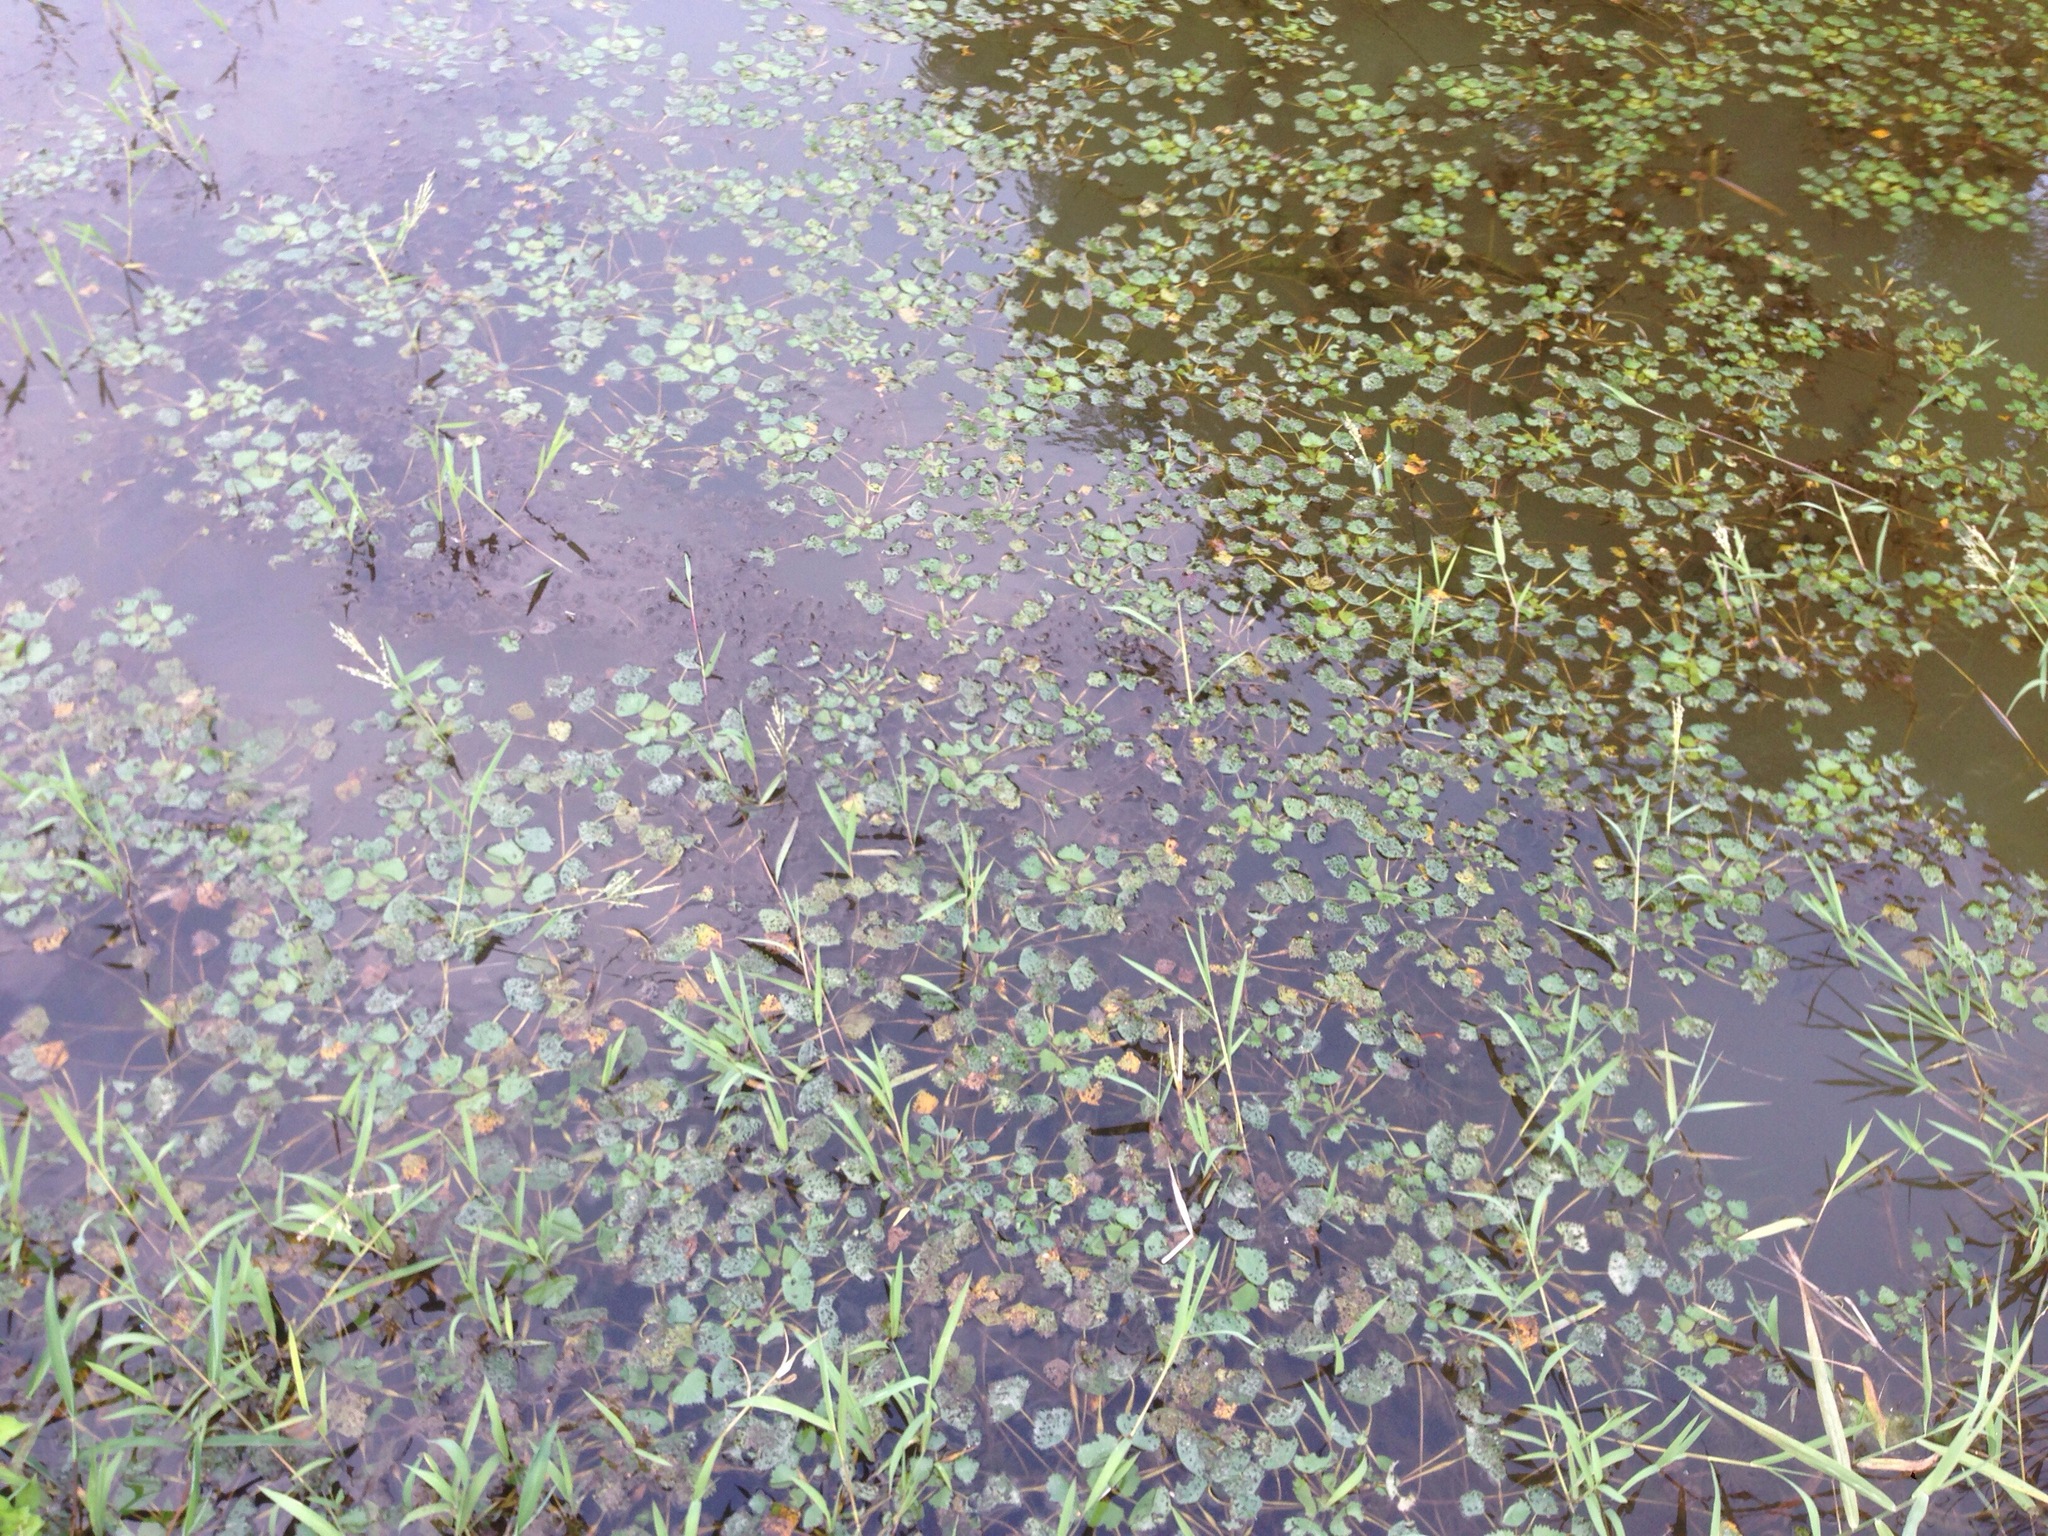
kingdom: Plantae
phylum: Tracheophyta
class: Magnoliopsida
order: Myrtales
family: Lythraceae
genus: Trapa
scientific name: Trapa natans
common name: Water chestnut
